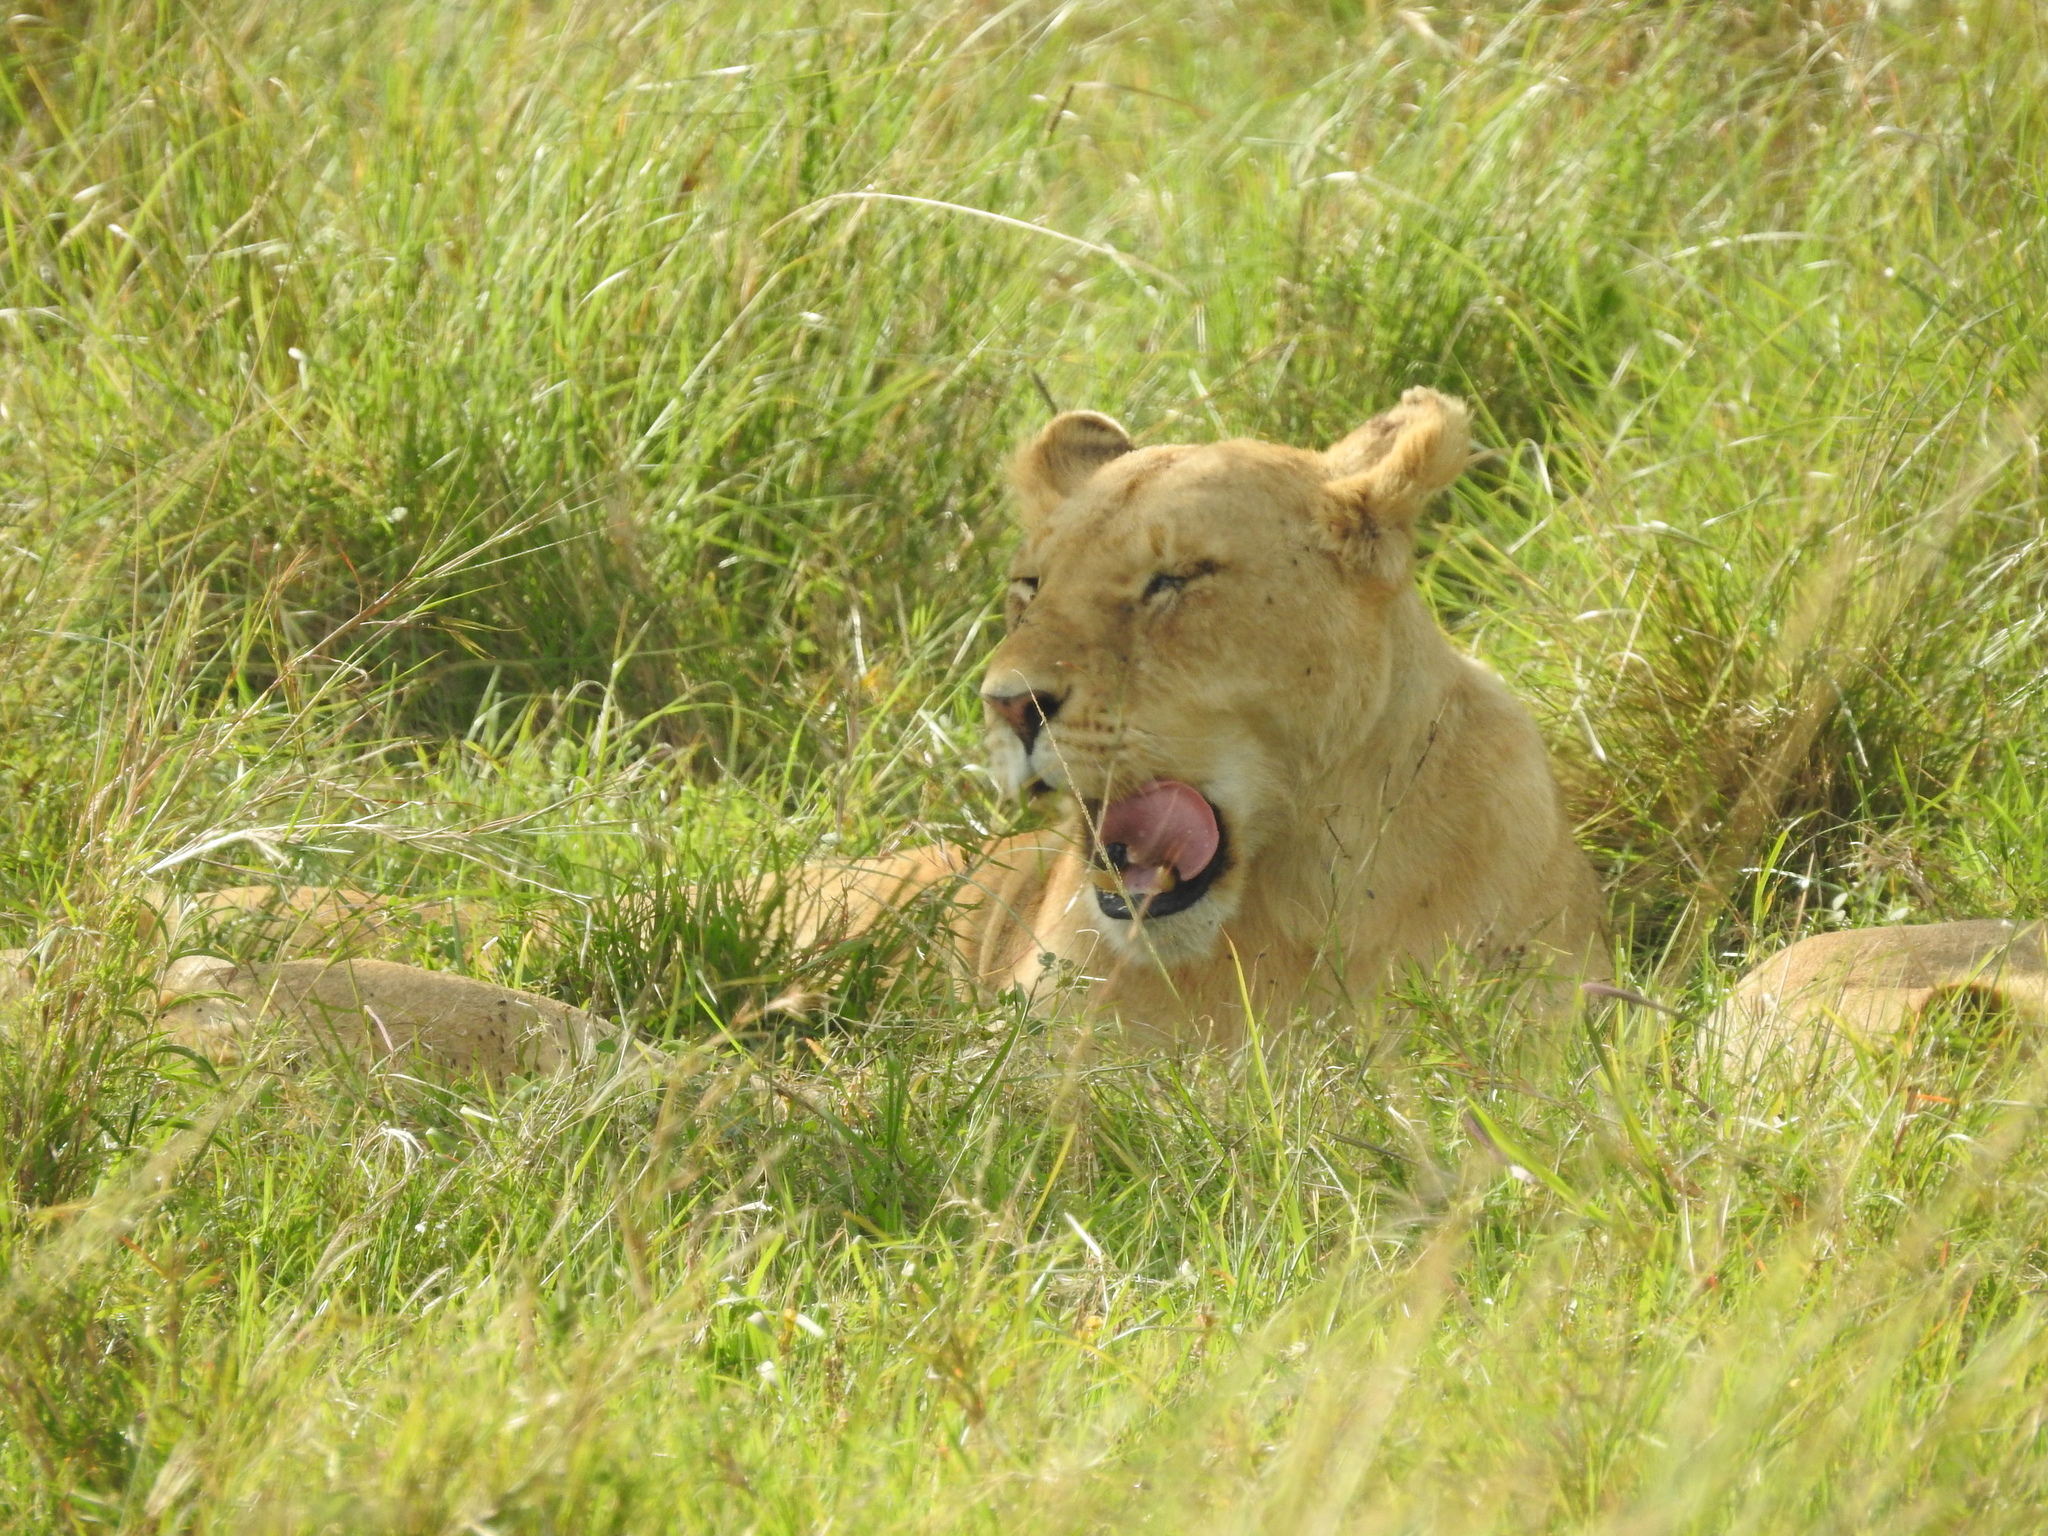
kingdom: Animalia
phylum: Chordata
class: Mammalia
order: Carnivora
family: Felidae
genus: Panthera
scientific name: Panthera leo
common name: Lion
